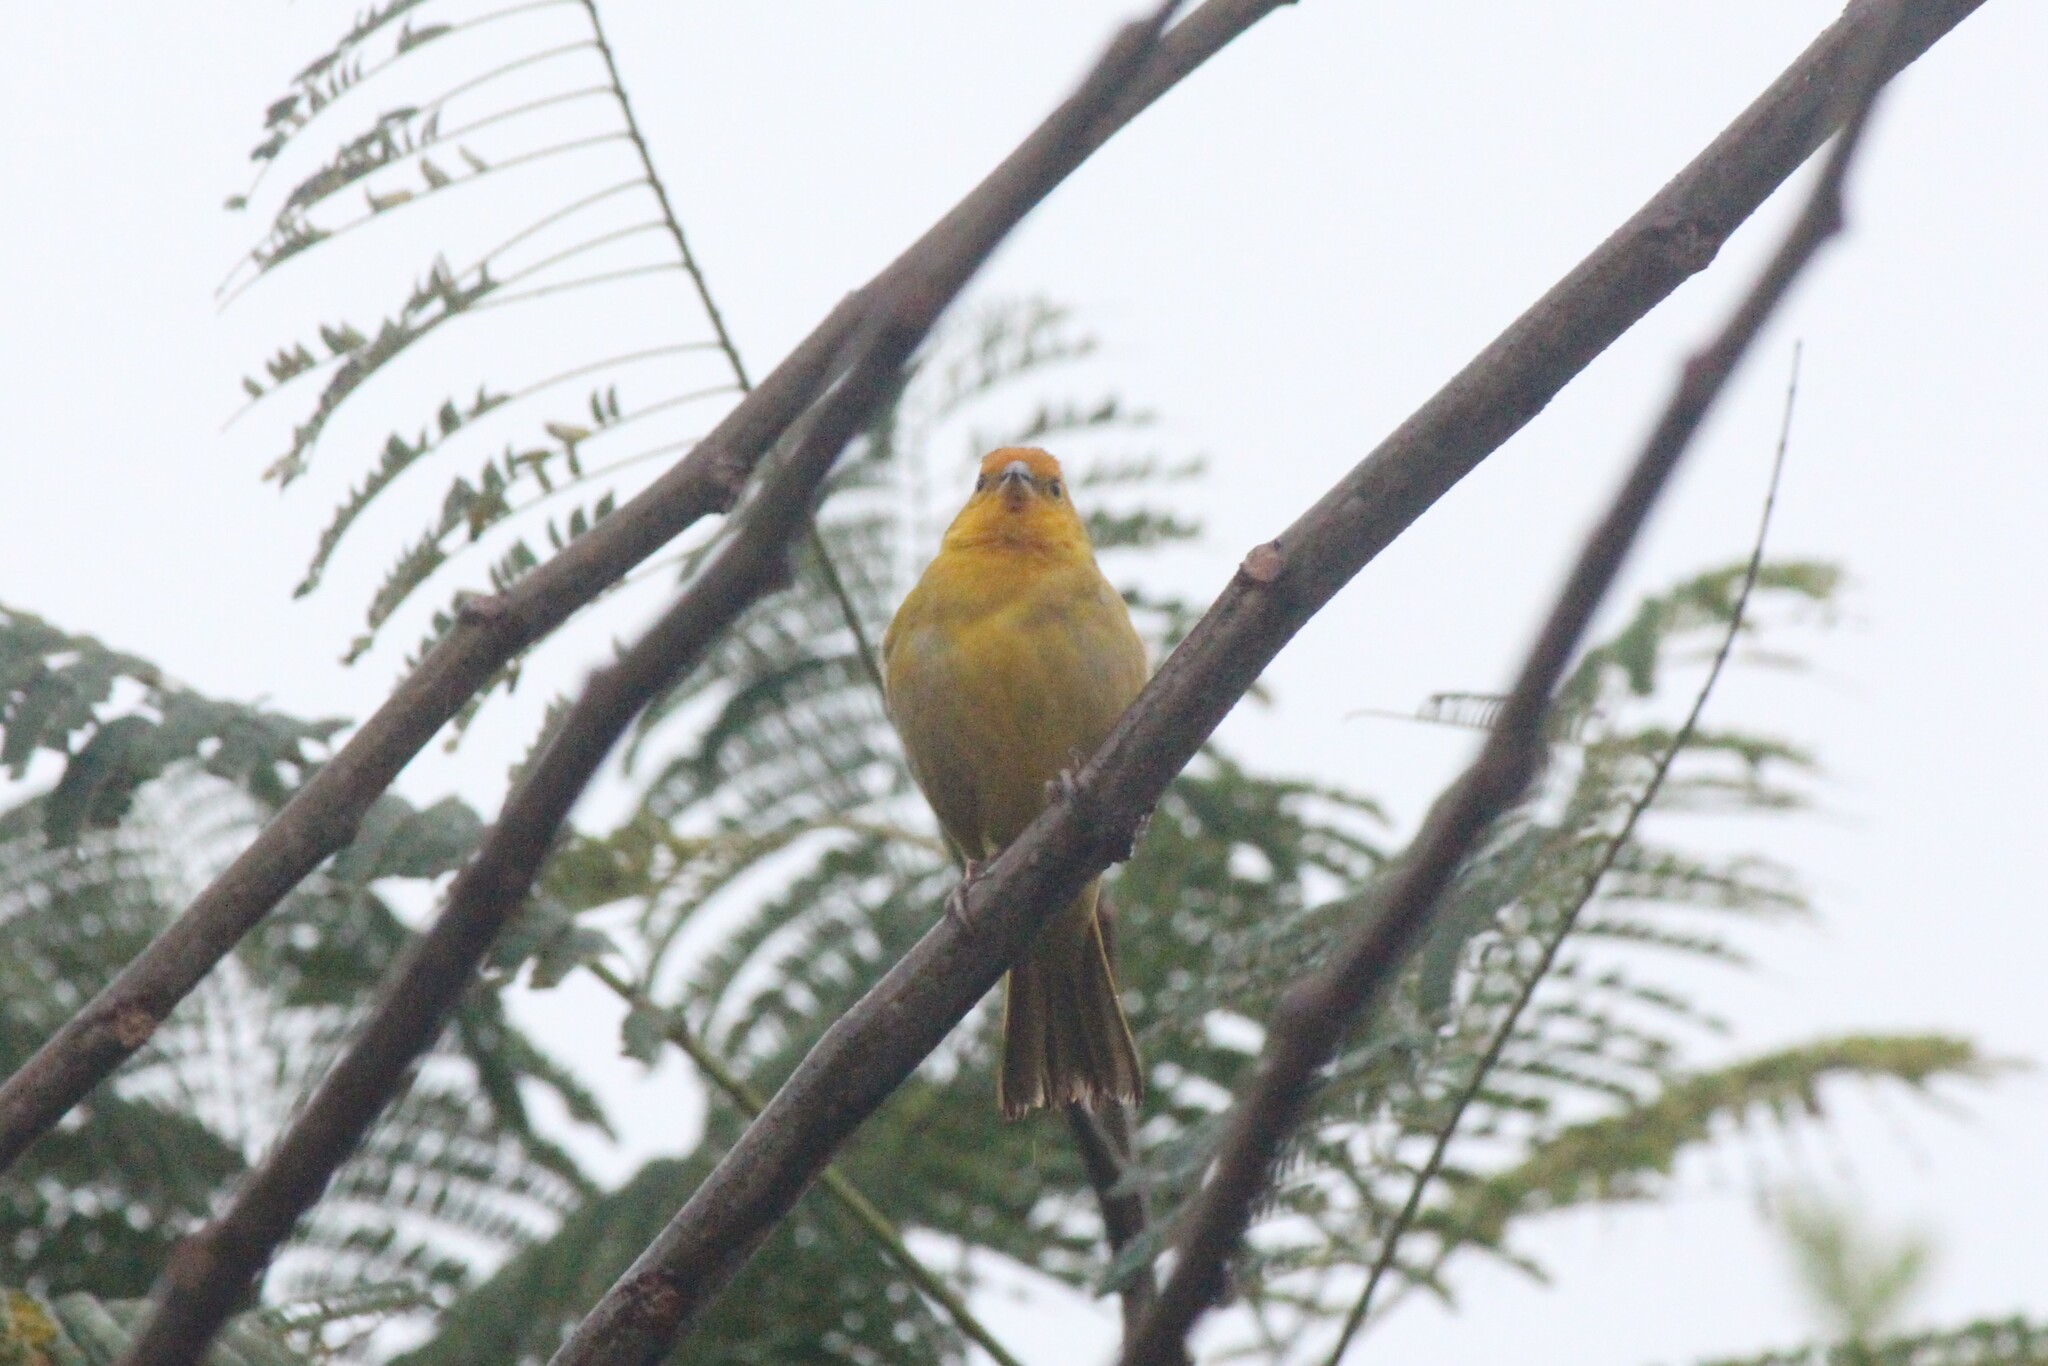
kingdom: Animalia
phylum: Chordata
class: Aves
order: Passeriformes
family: Thraupidae
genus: Sicalis
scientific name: Sicalis flaveola
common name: Saffron finch
